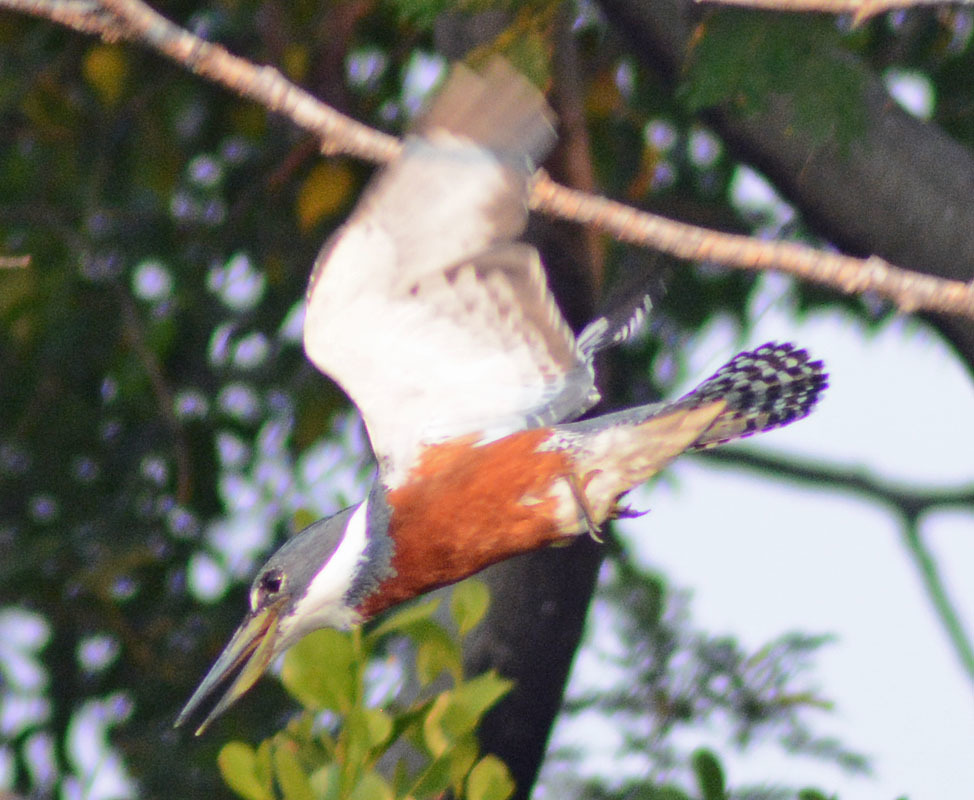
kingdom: Animalia
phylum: Chordata
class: Aves
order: Coraciiformes
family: Alcedinidae
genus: Megaceryle
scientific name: Megaceryle torquata
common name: Ringed kingfisher
